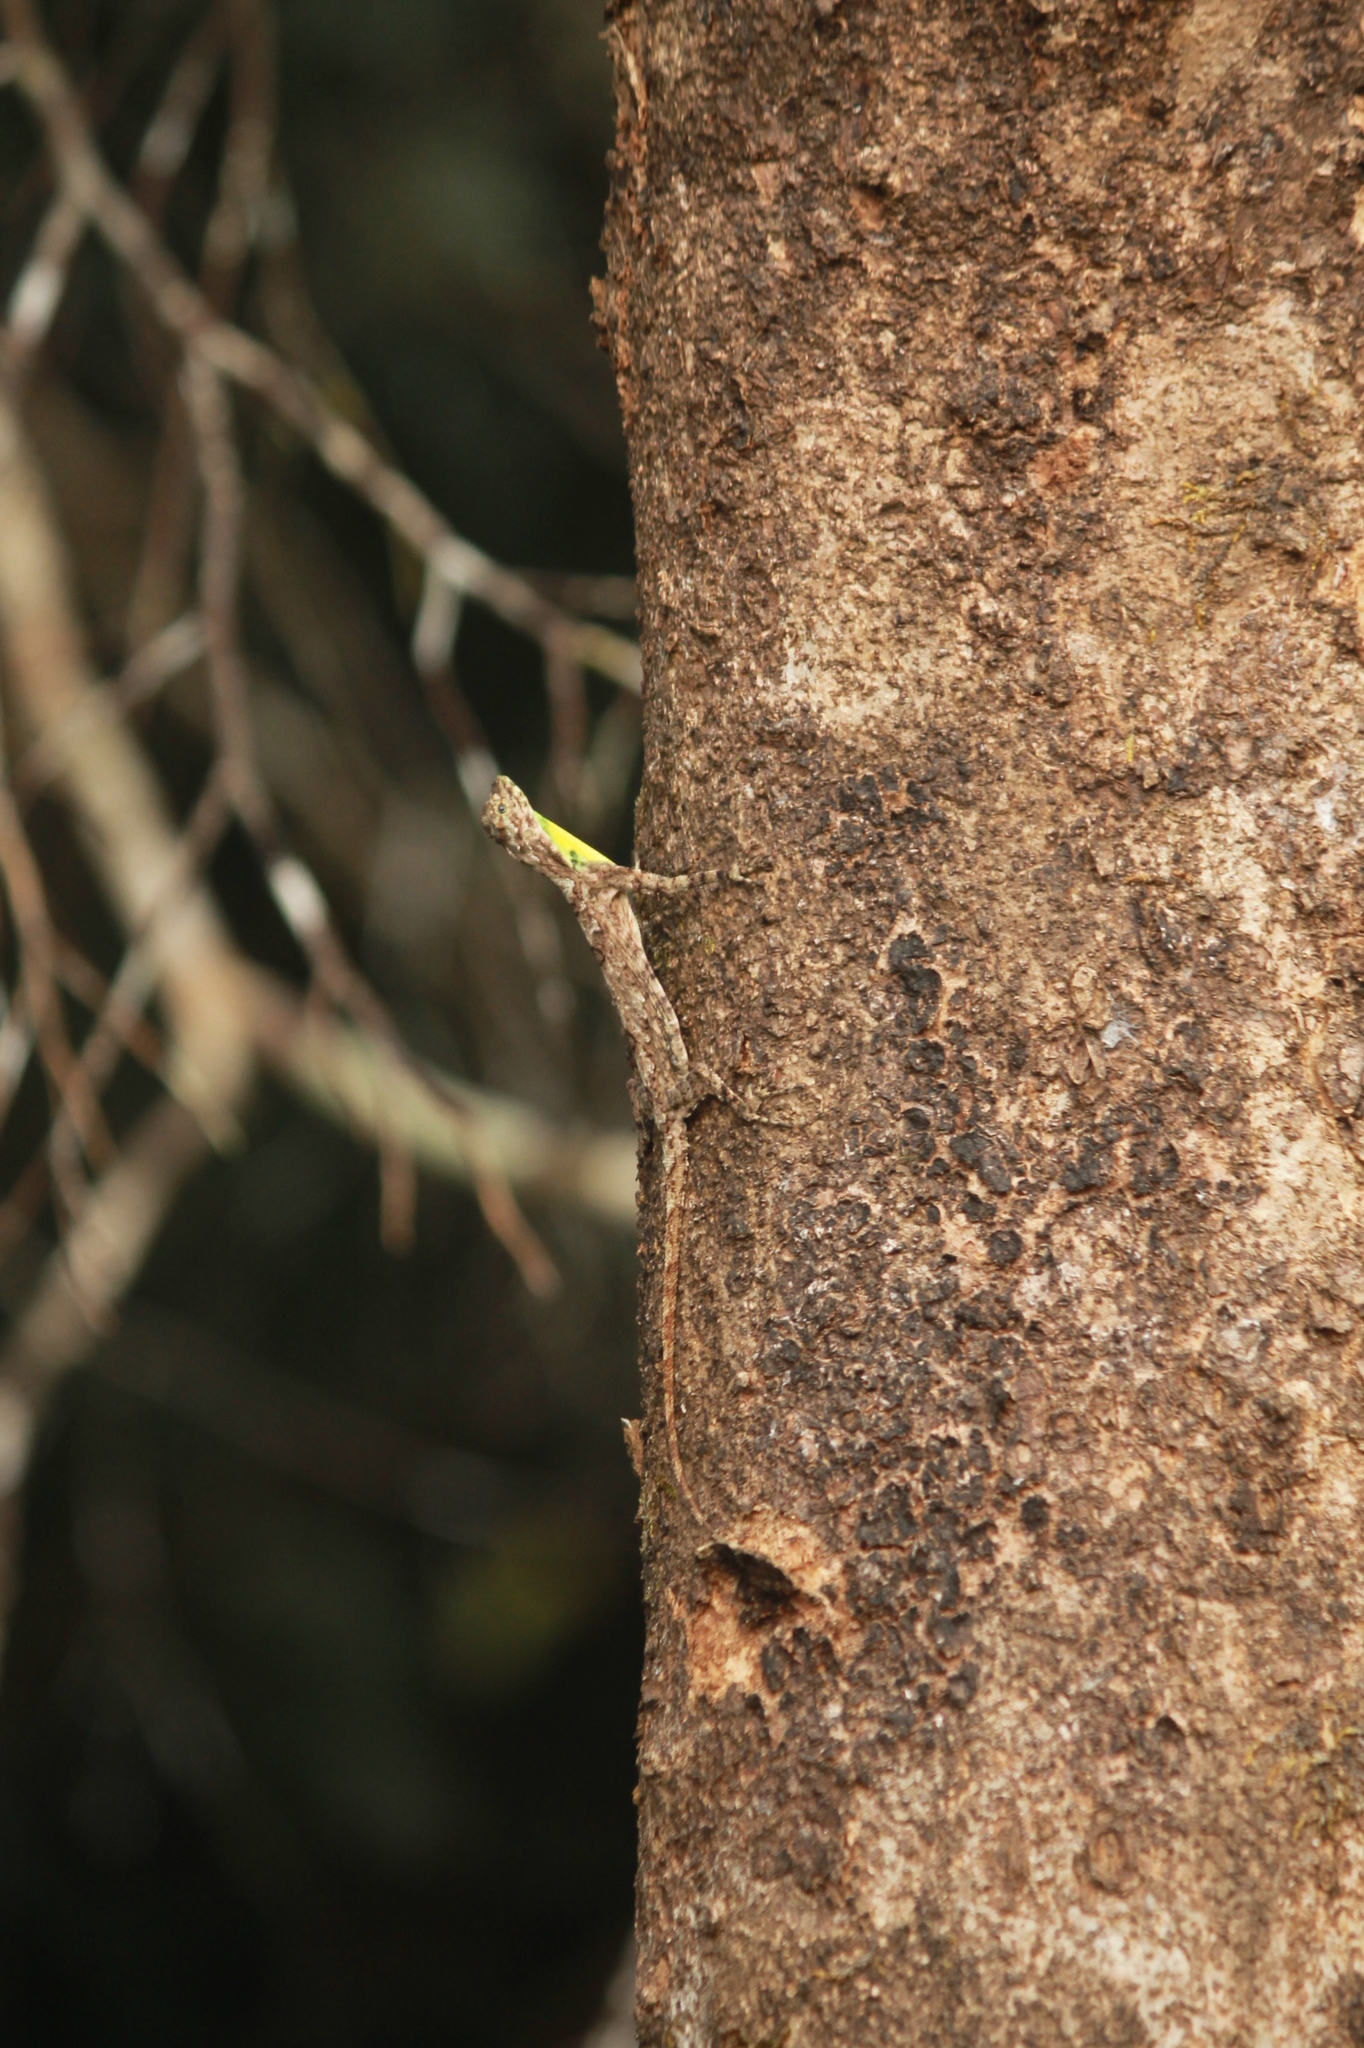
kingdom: Animalia
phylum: Chordata
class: Squamata
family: Agamidae
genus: Draco
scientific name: Draco dussumieri
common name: Southern flying lizard
